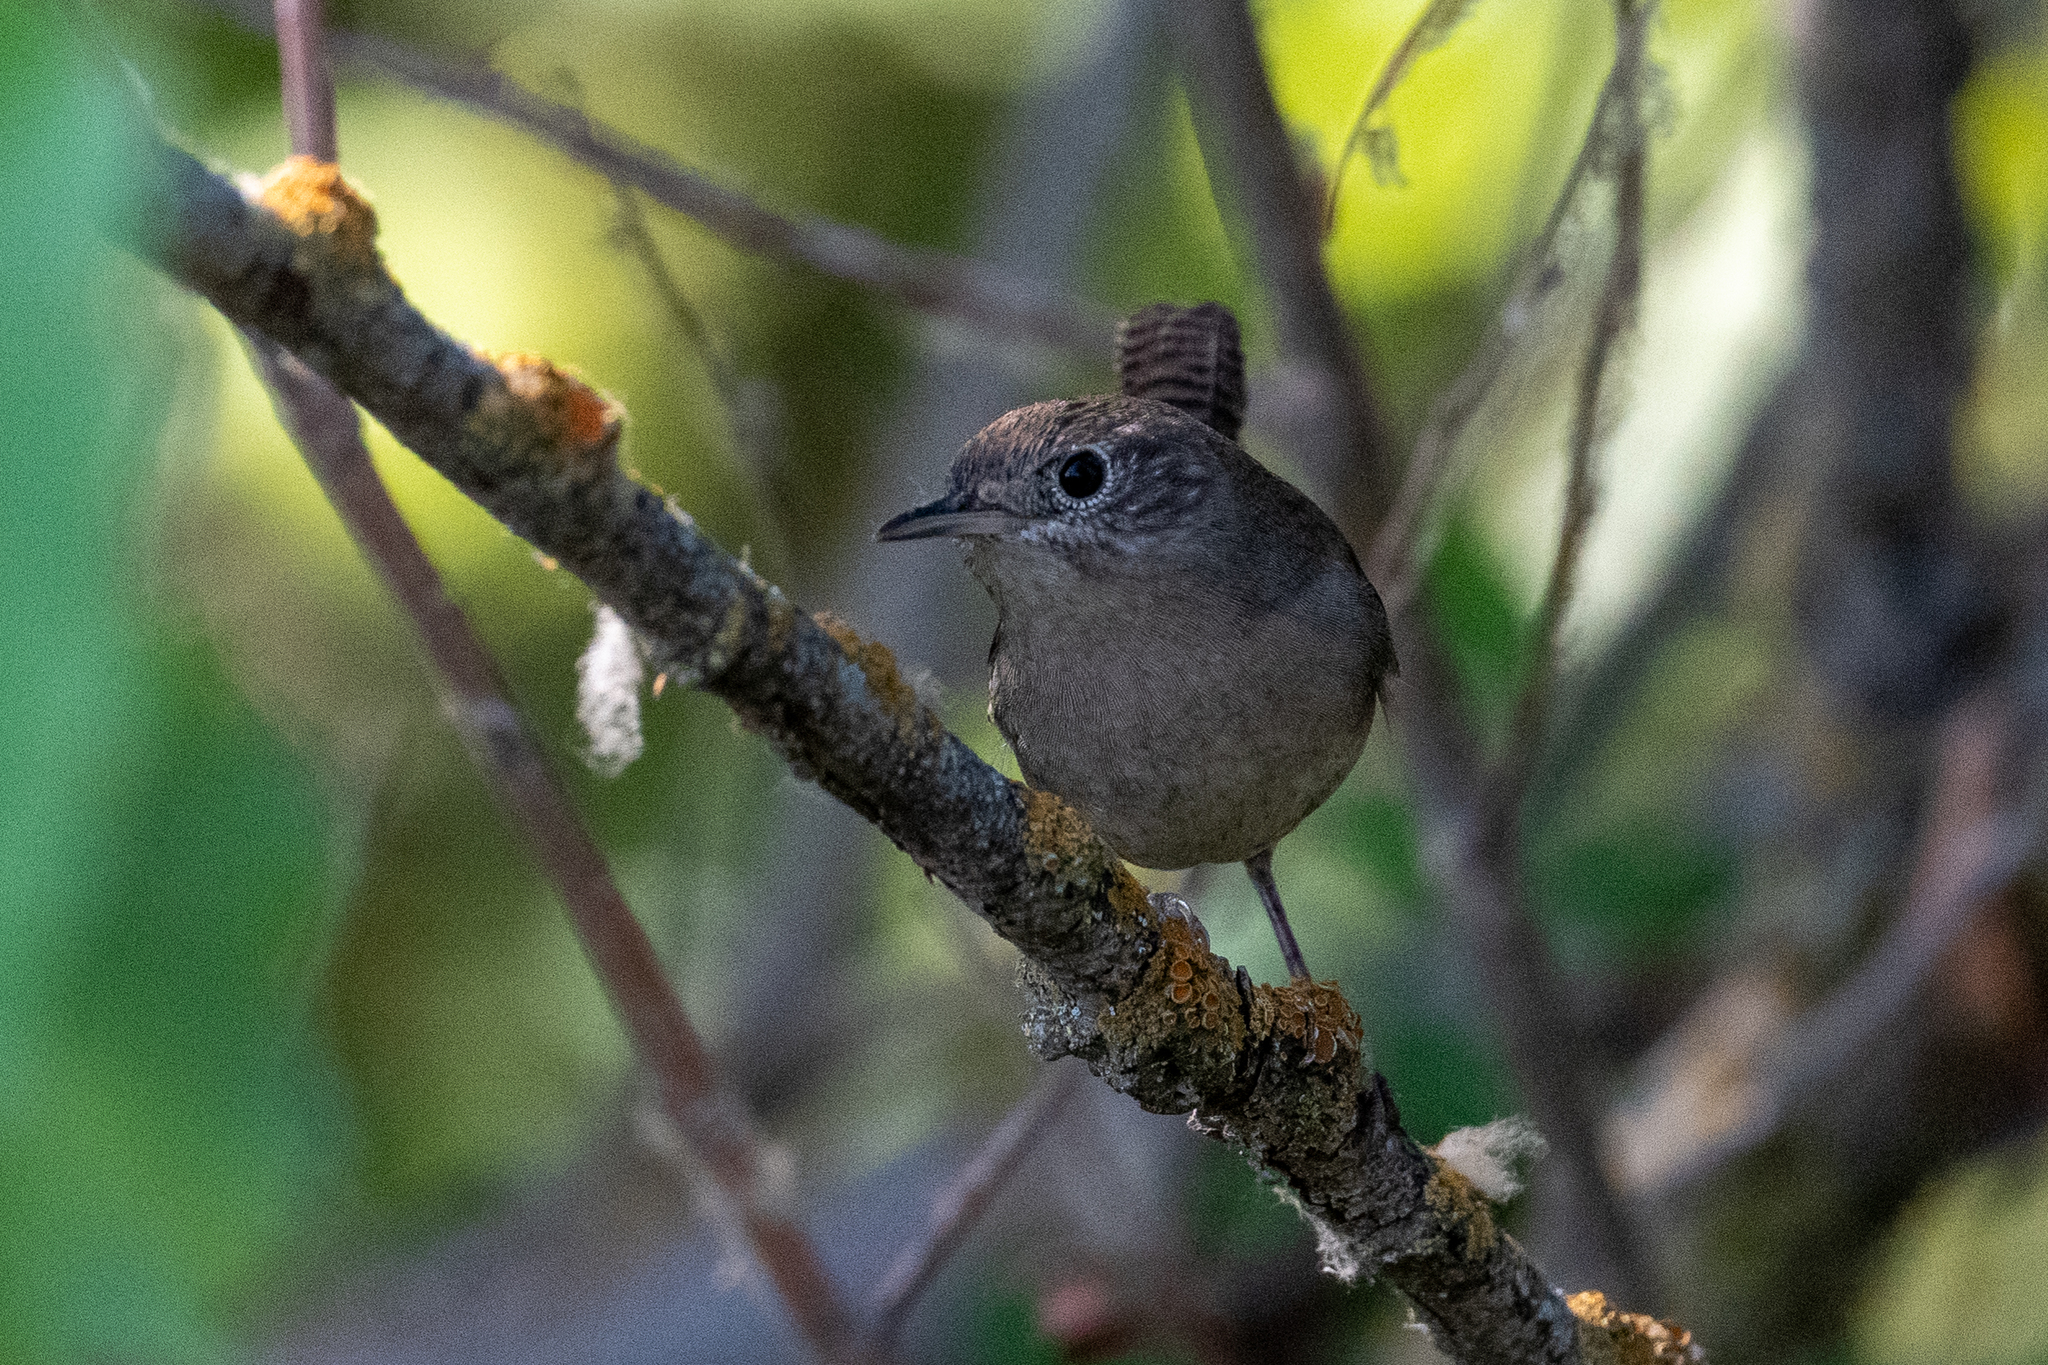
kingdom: Animalia
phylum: Chordata
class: Aves
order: Passeriformes
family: Troglodytidae
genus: Troglodytes
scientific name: Troglodytes aedon
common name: House wren
